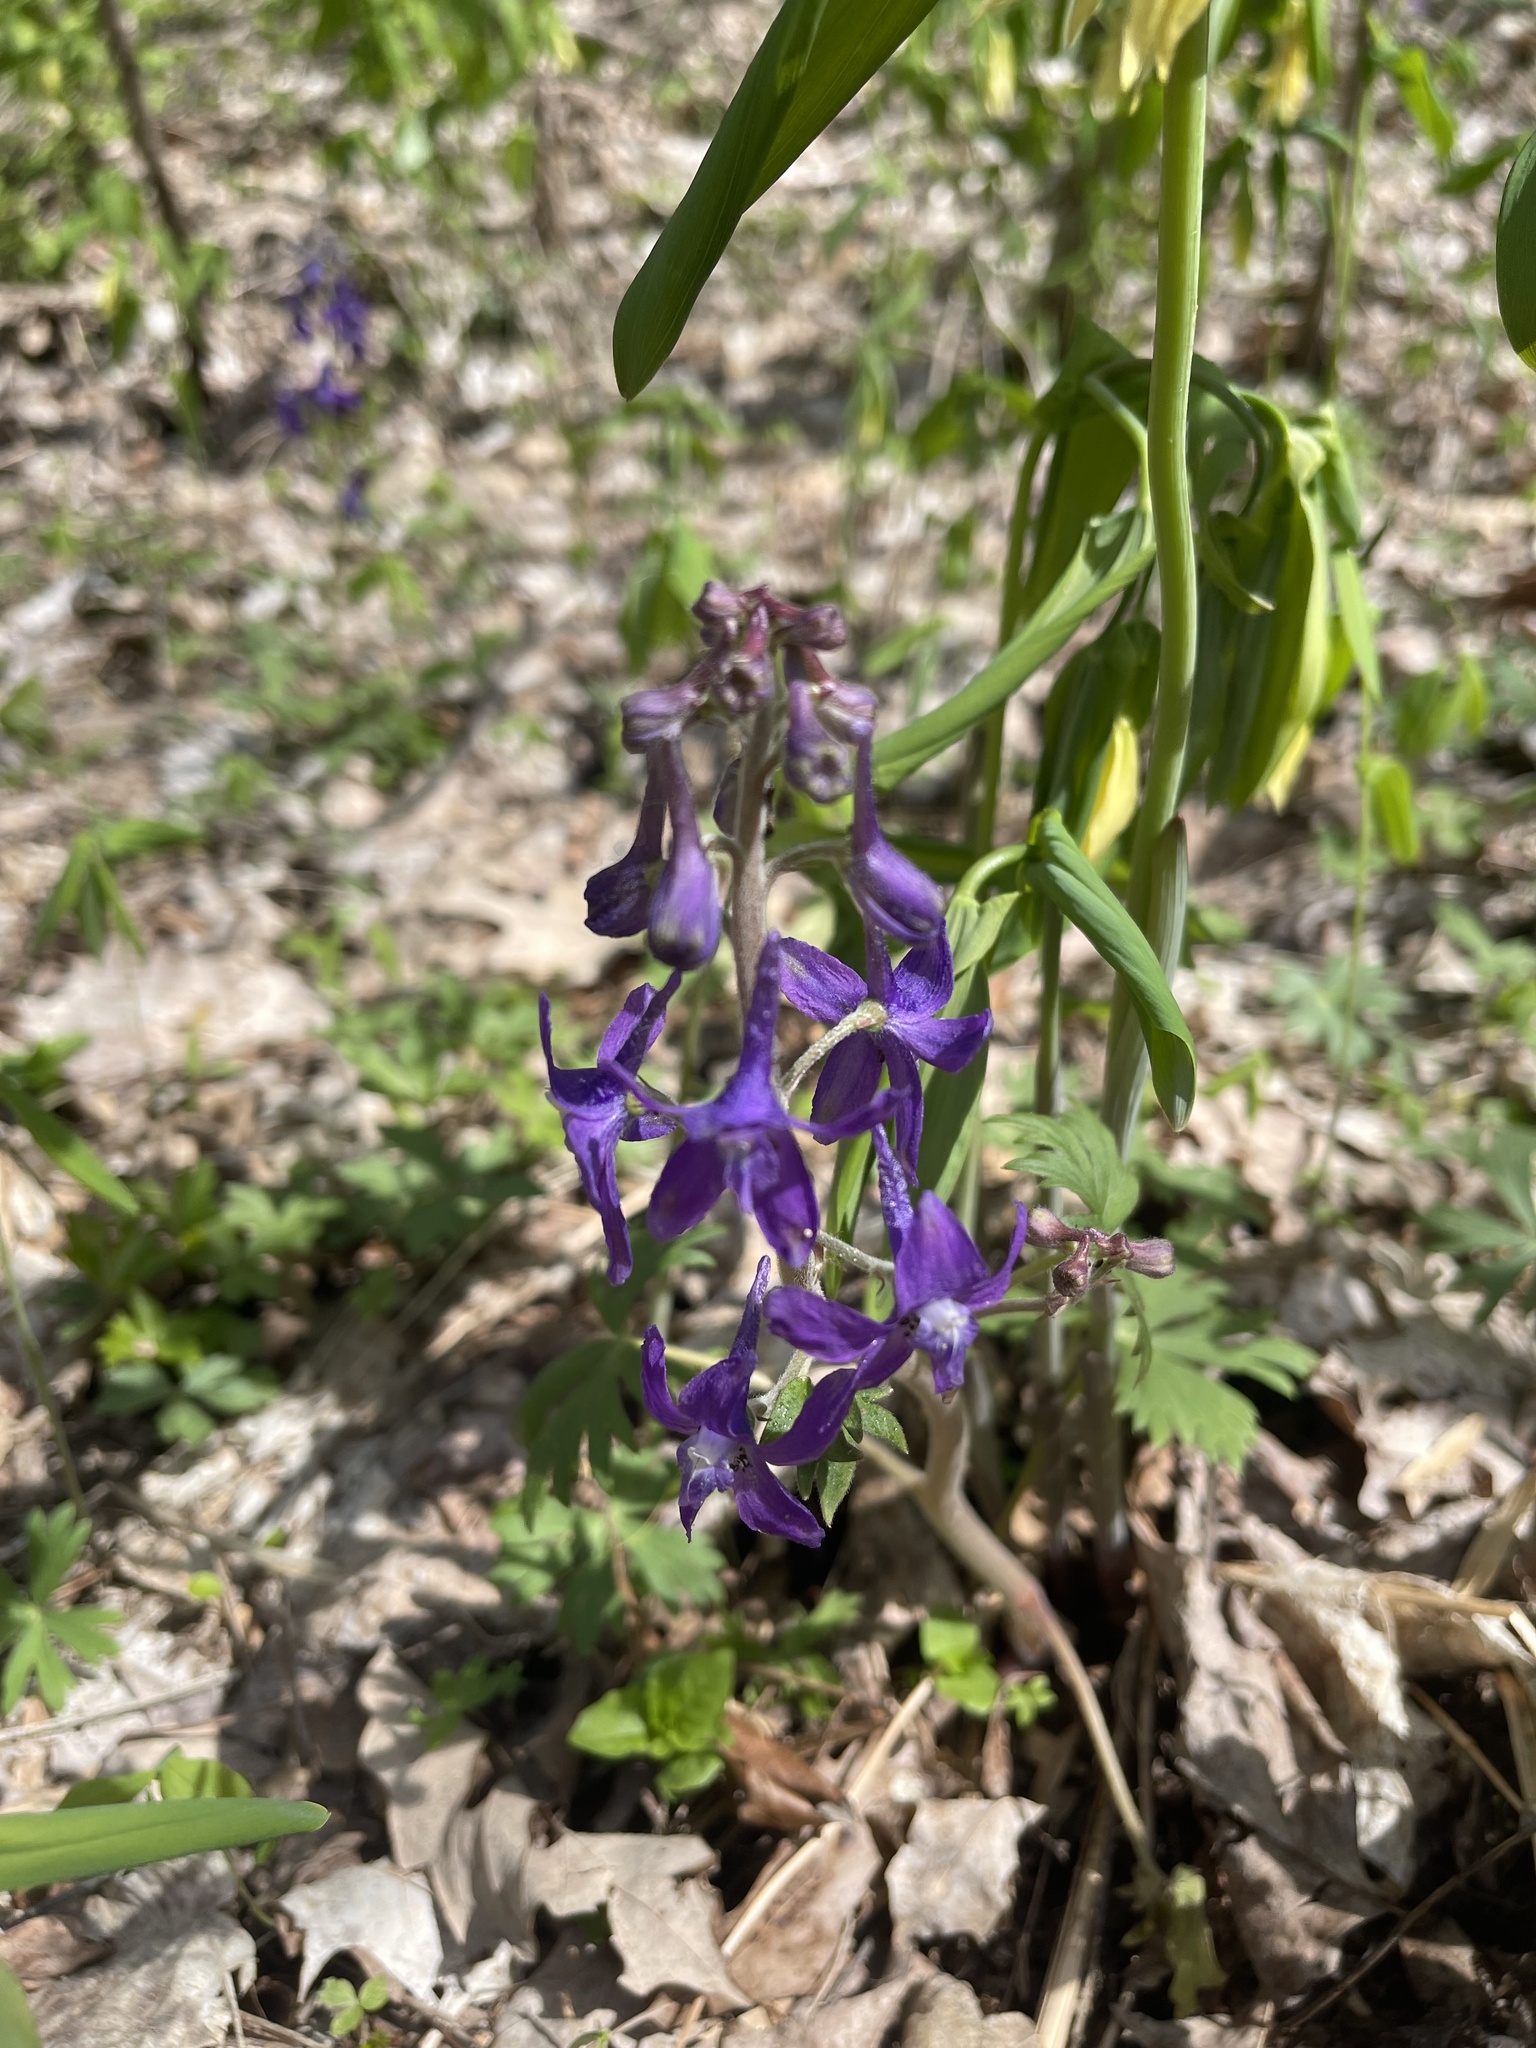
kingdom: Plantae
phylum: Tracheophyta
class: Magnoliopsida
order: Ranunculales
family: Ranunculaceae
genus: Delphinium
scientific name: Delphinium tricorne
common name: Dwarf larkspur
